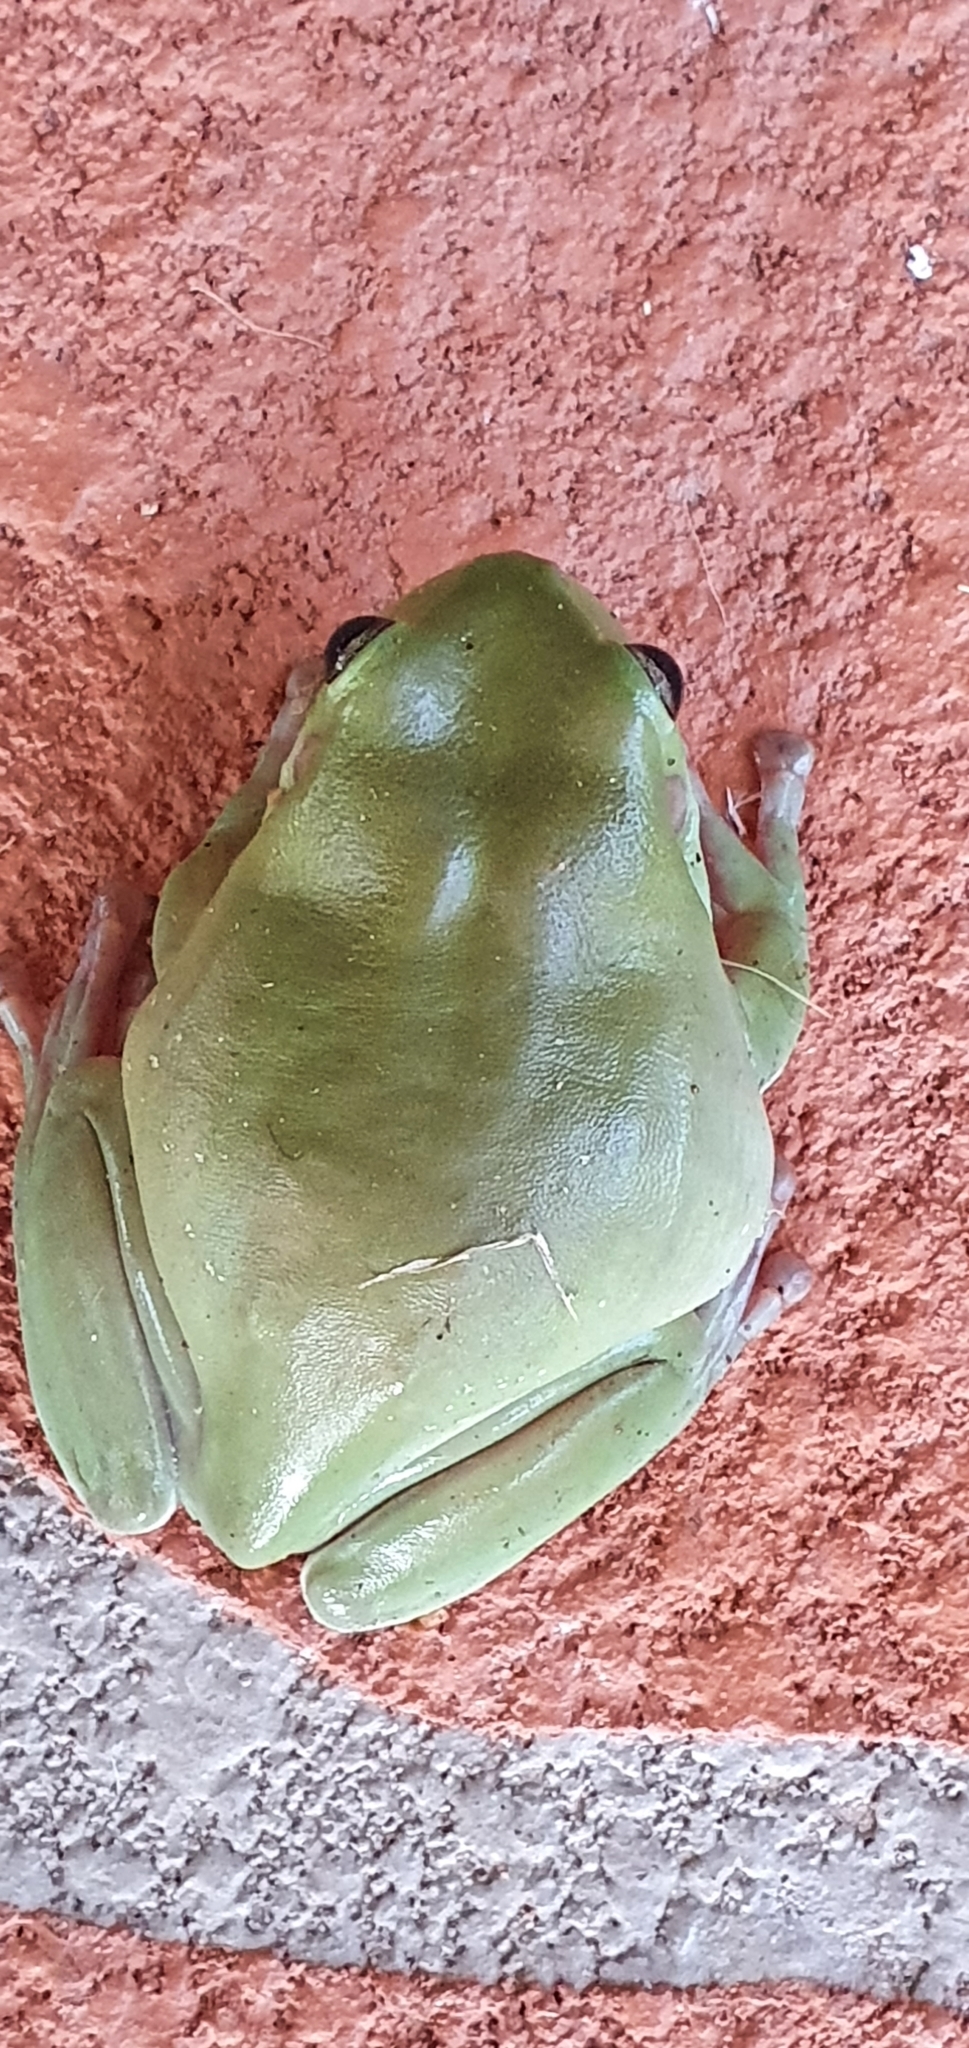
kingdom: Animalia
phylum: Chordata
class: Amphibia
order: Anura
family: Pelodryadidae
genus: Ranoidea
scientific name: Ranoidea caerulea
